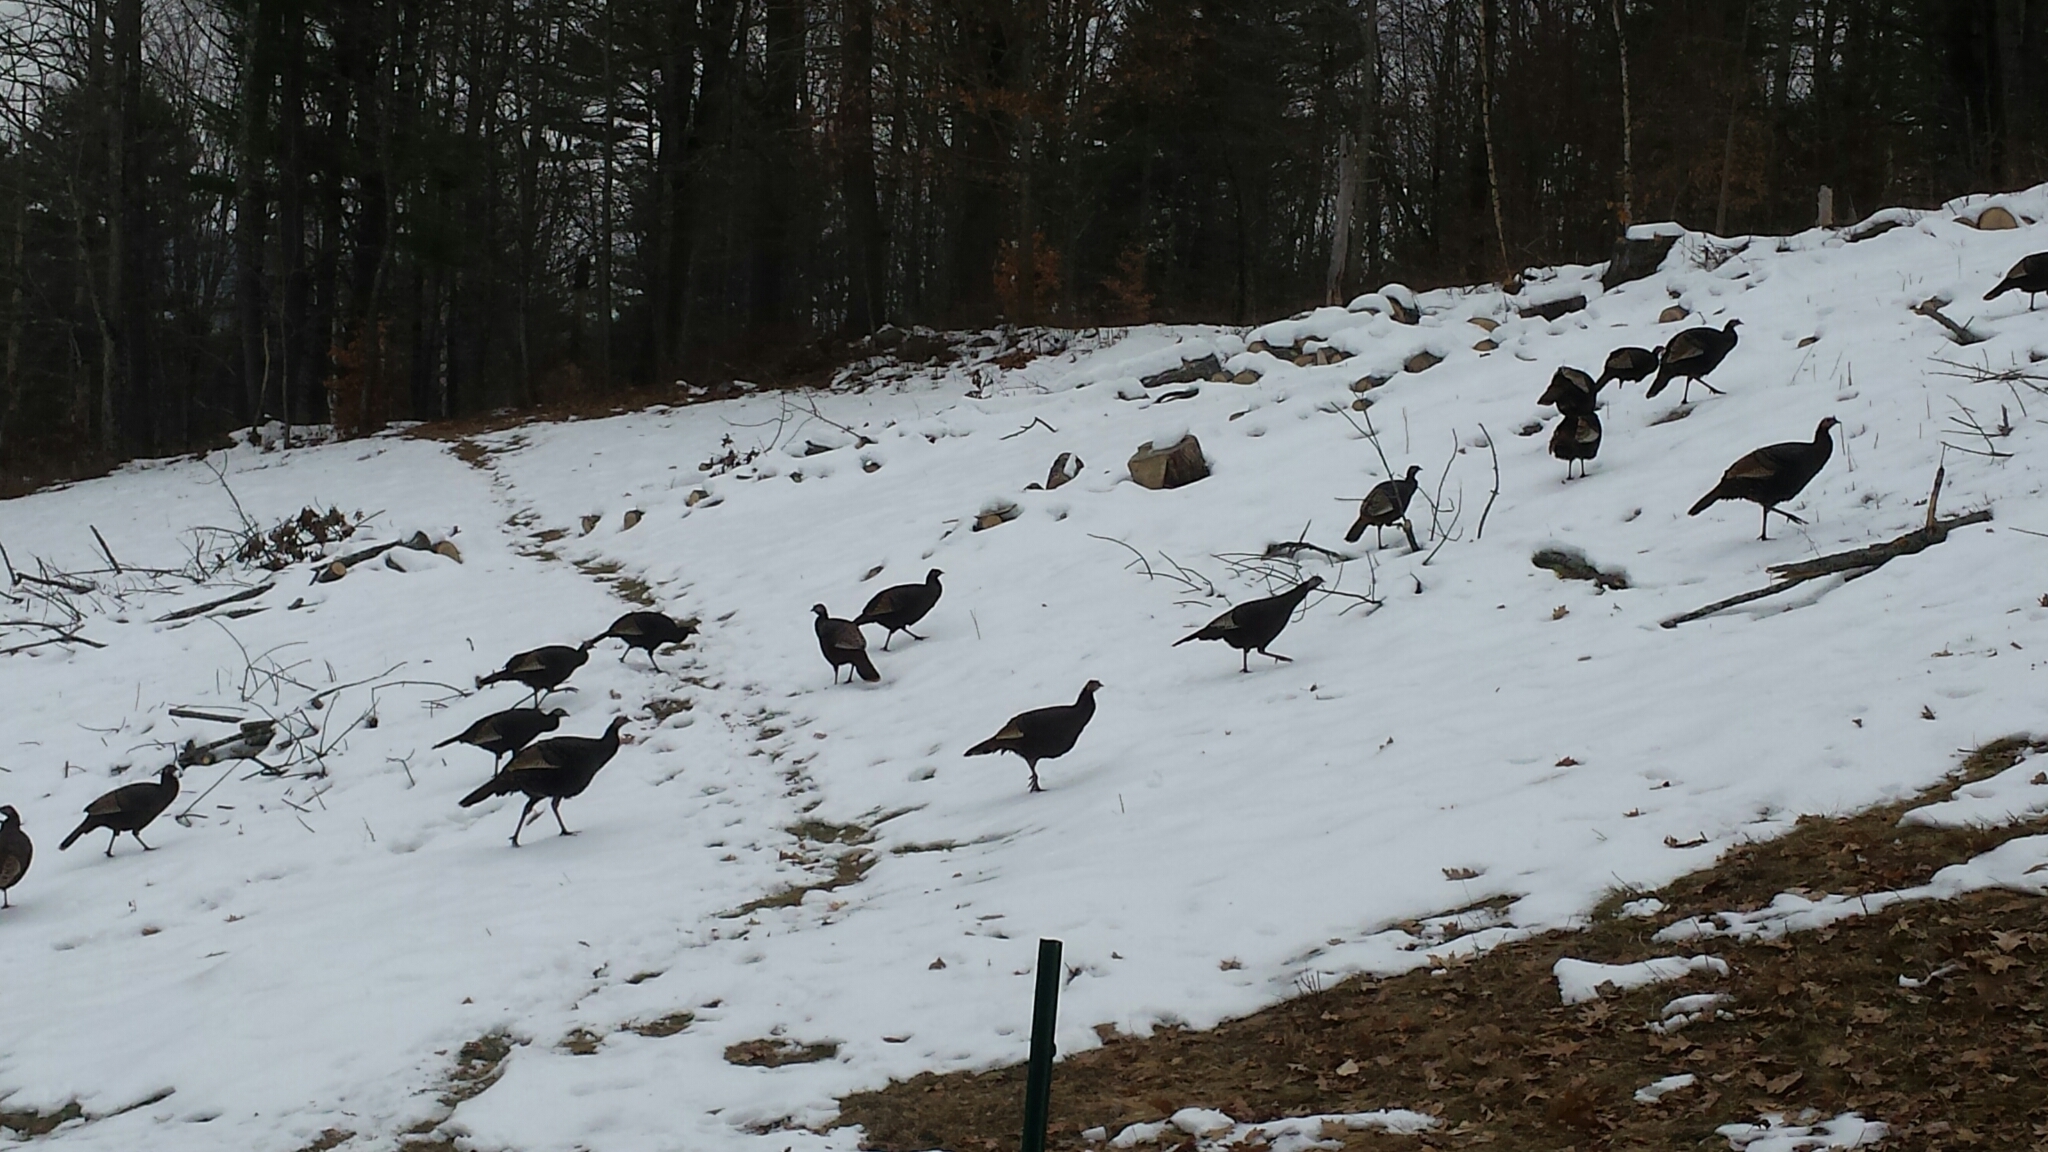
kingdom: Animalia
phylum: Chordata
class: Aves
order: Galliformes
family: Phasianidae
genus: Meleagris
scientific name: Meleagris gallopavo
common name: Wild turkey
